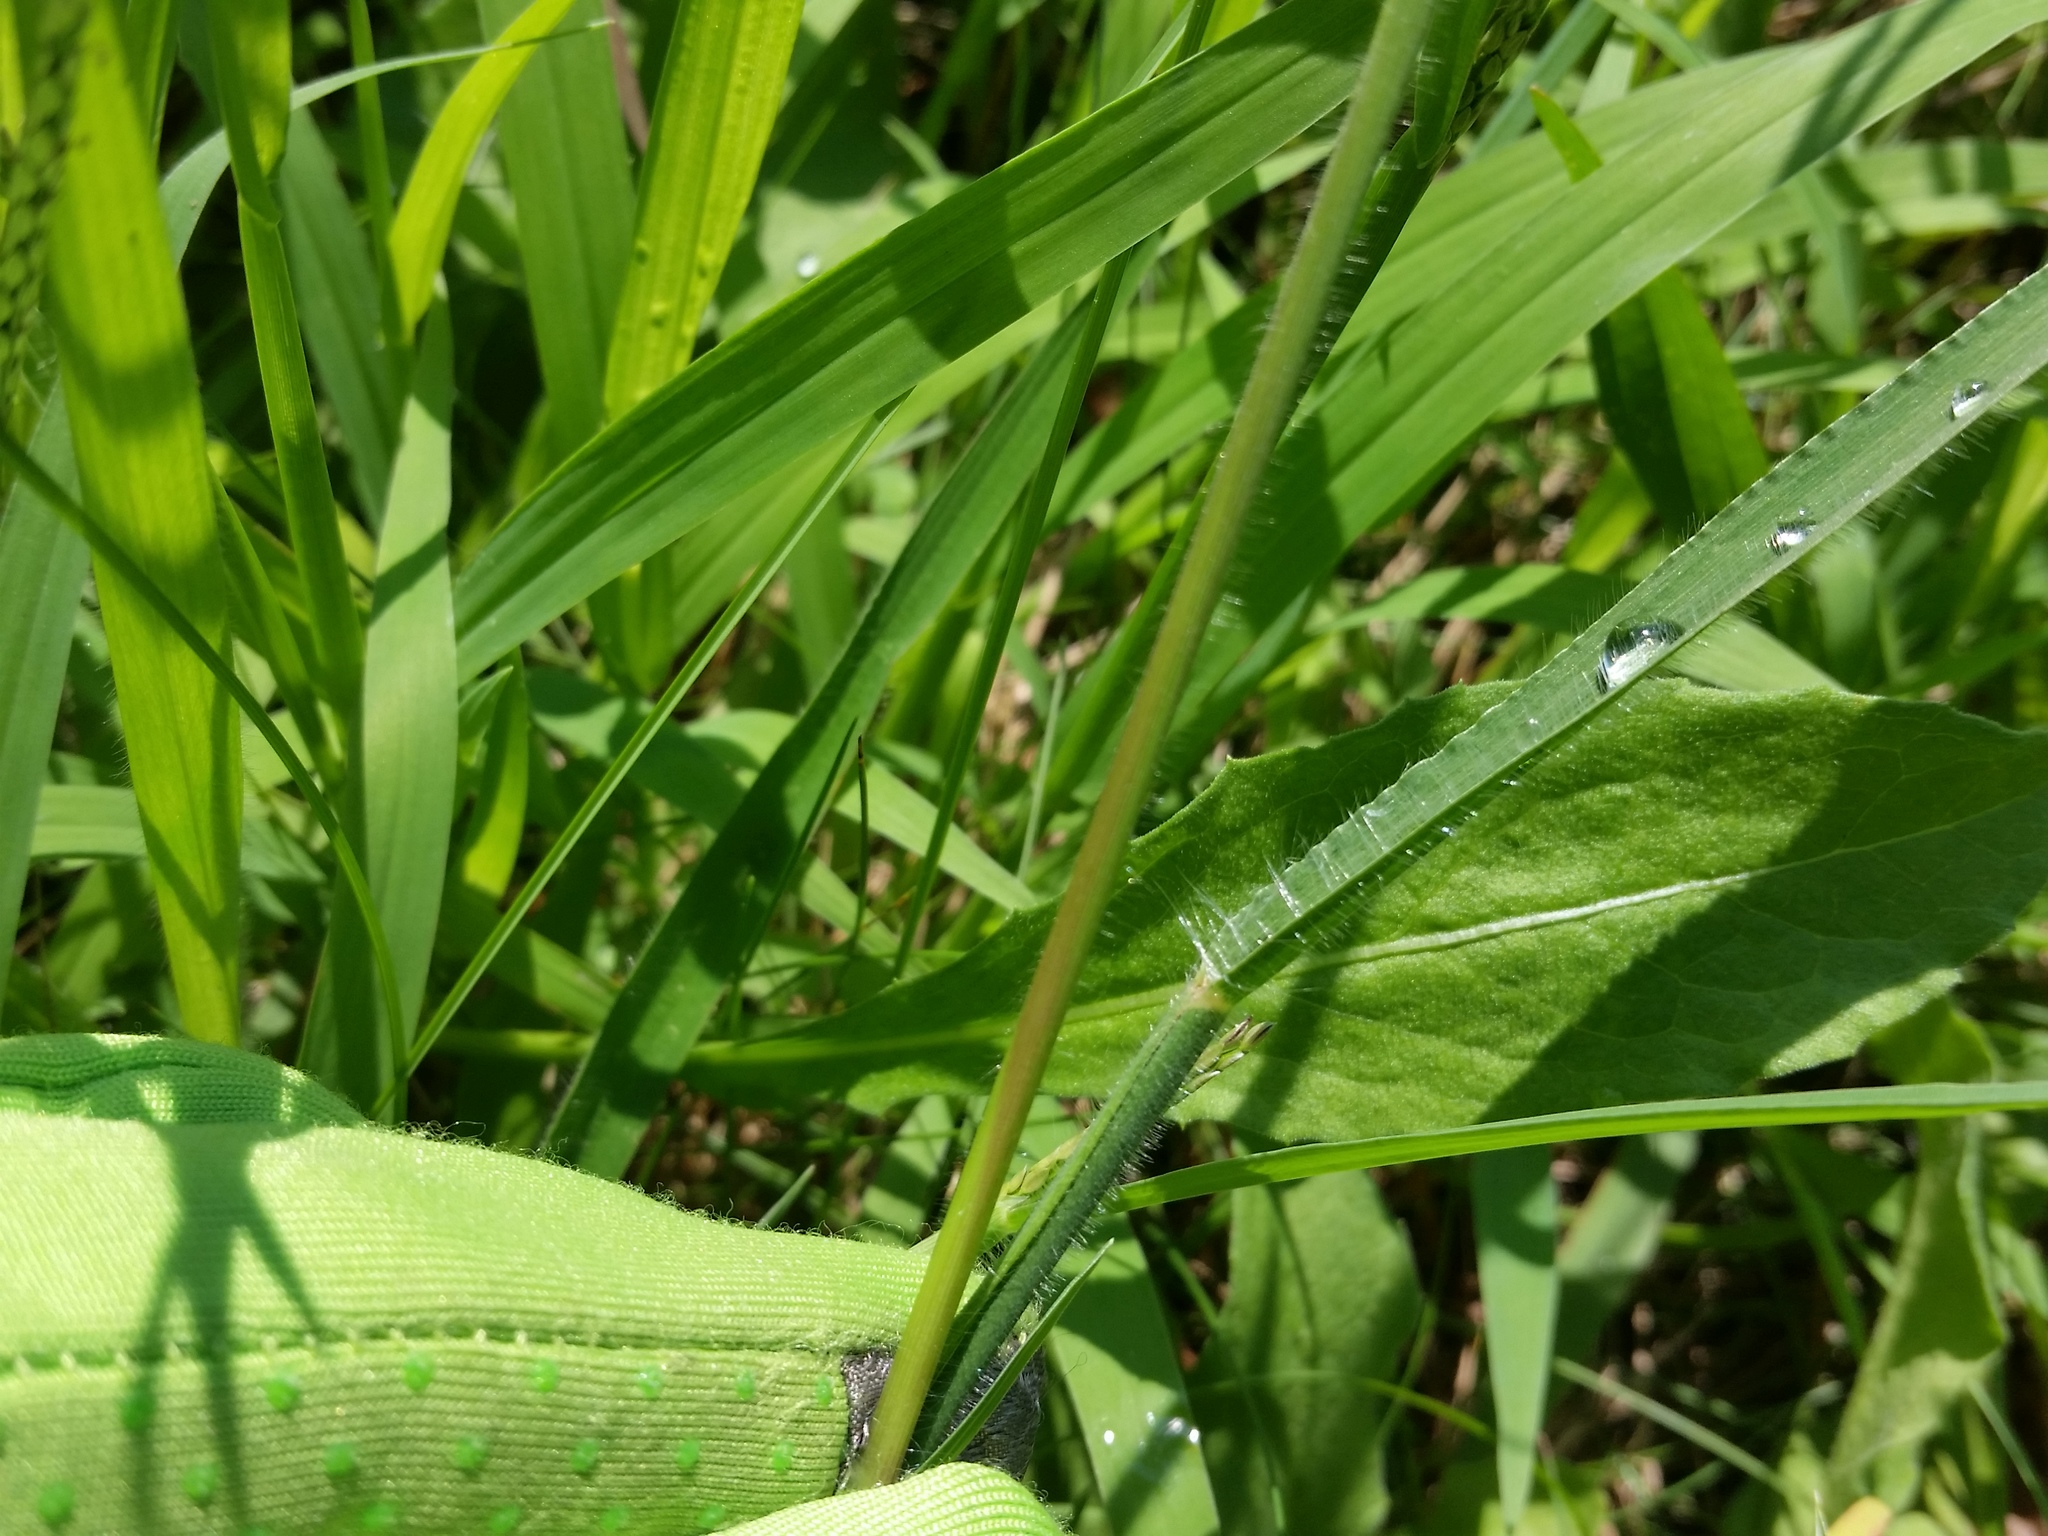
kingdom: Plantae
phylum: Tracheophyta
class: Liliopsida
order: Poales
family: Poaceae
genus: Paspalum
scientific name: Paspalum laeve
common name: Field paspalum
